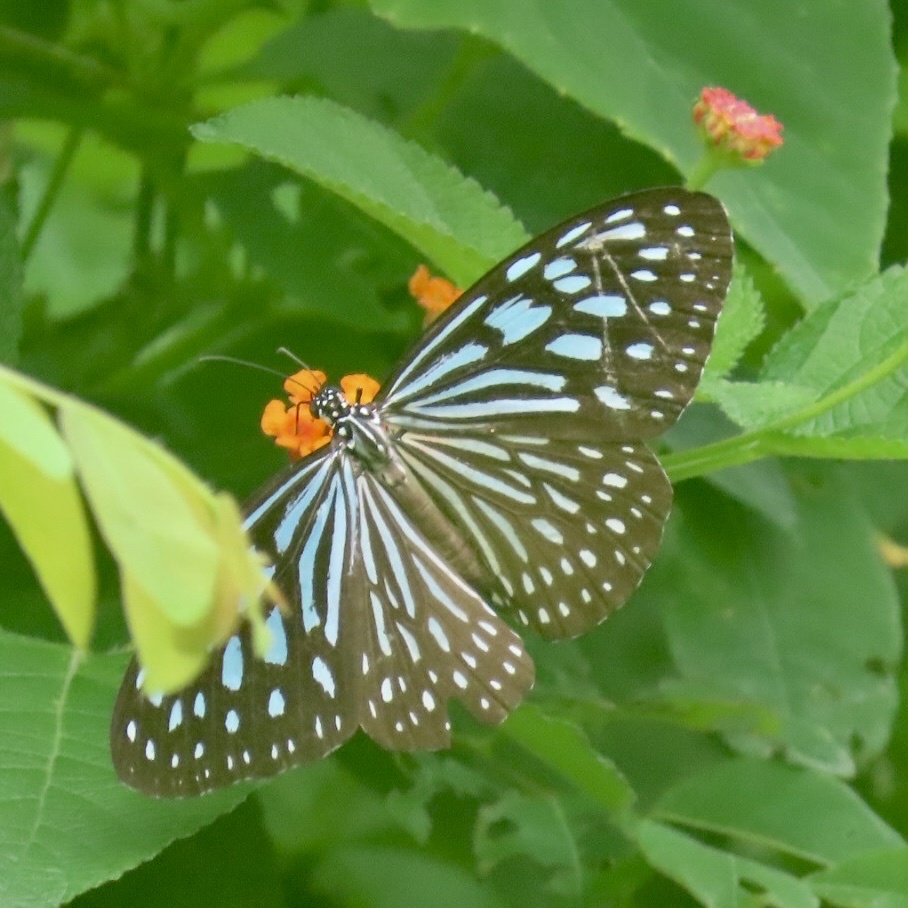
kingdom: Animalia
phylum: Arthropoda
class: Insecta
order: Lepidoptera
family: Nymphalidae
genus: Ideopsis
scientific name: Ideopsis similis
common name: Ceylon blue glassy tiger
